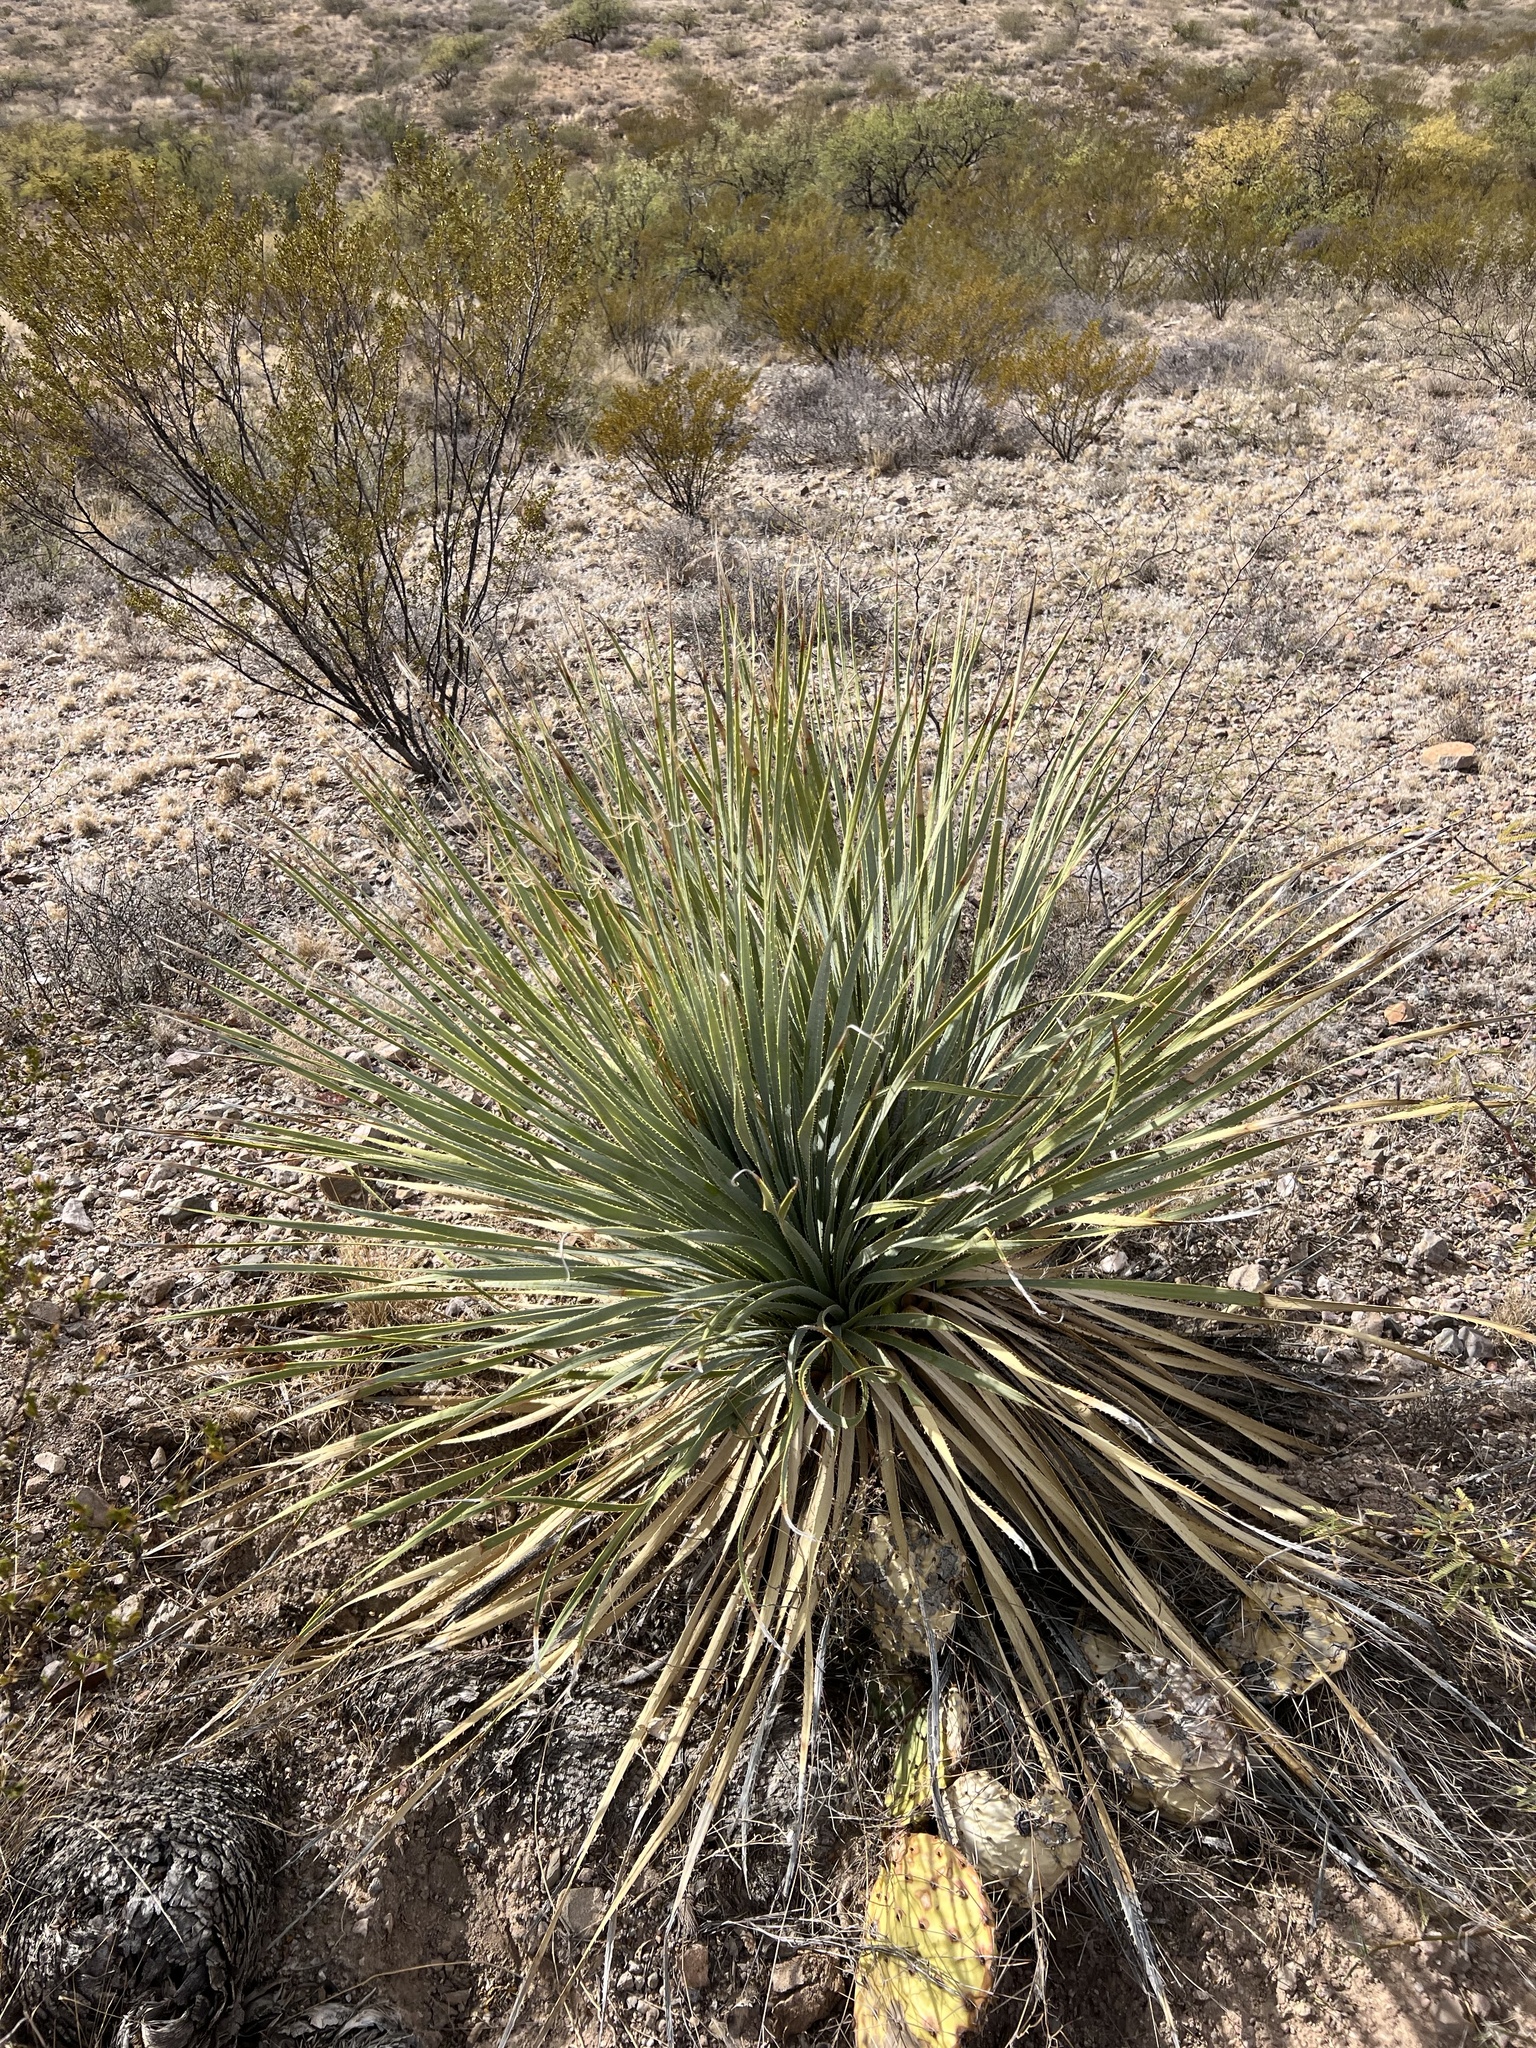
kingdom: Plantae
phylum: Tracheophyta
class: Liliopsida
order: Asparagales
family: Asparagaceae
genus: Dasylirion
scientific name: Dasylirion wheeleri
